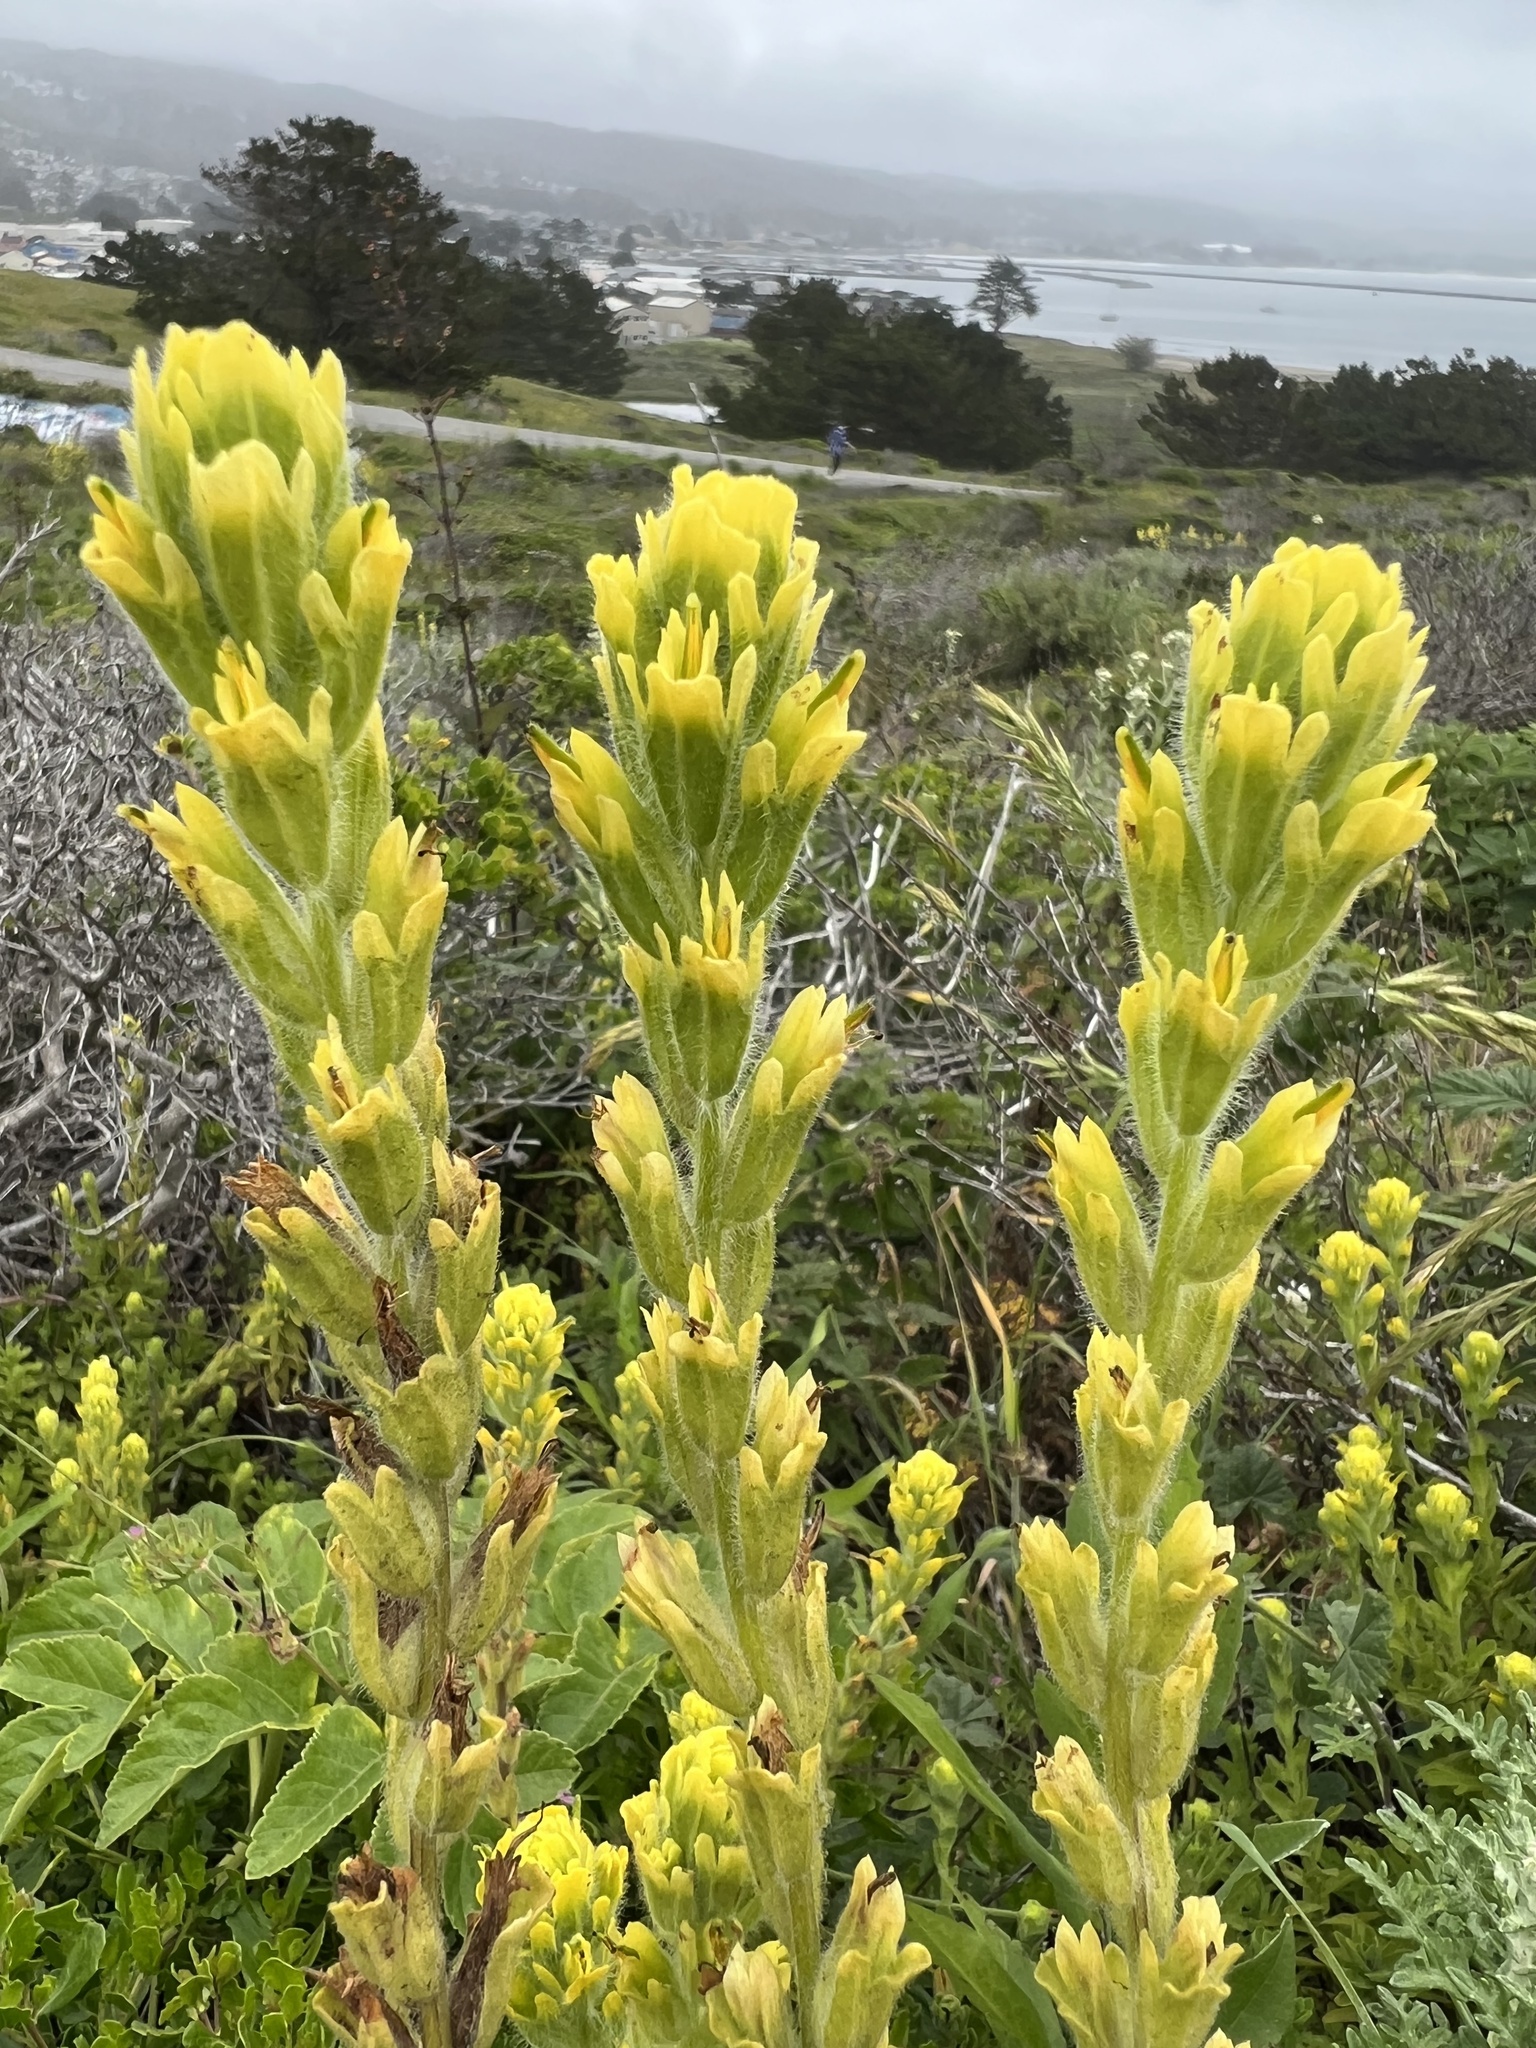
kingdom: Plantae
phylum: Tracheophyta
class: Magnoliopsida
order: Lamiales
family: Orobanchaceae
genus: Castilleja
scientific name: Castilleja wightii
